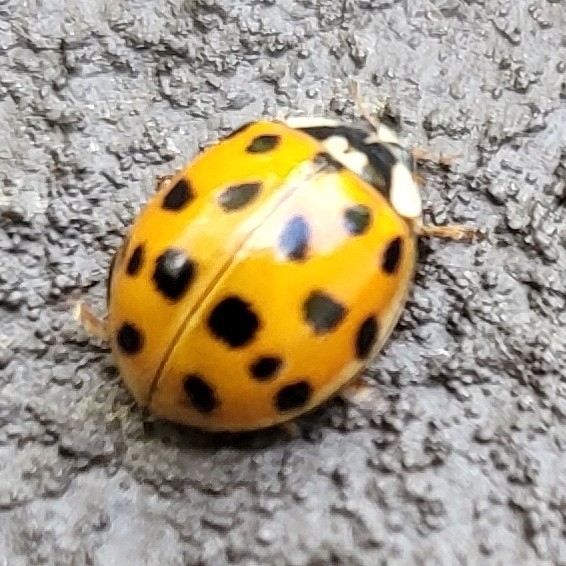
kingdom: Animalia
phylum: Arthropoda
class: Insecta
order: Coleoptera
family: Coccinellidae
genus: Harmonia
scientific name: Harmonia axyridis
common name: Harlequin ladybird
